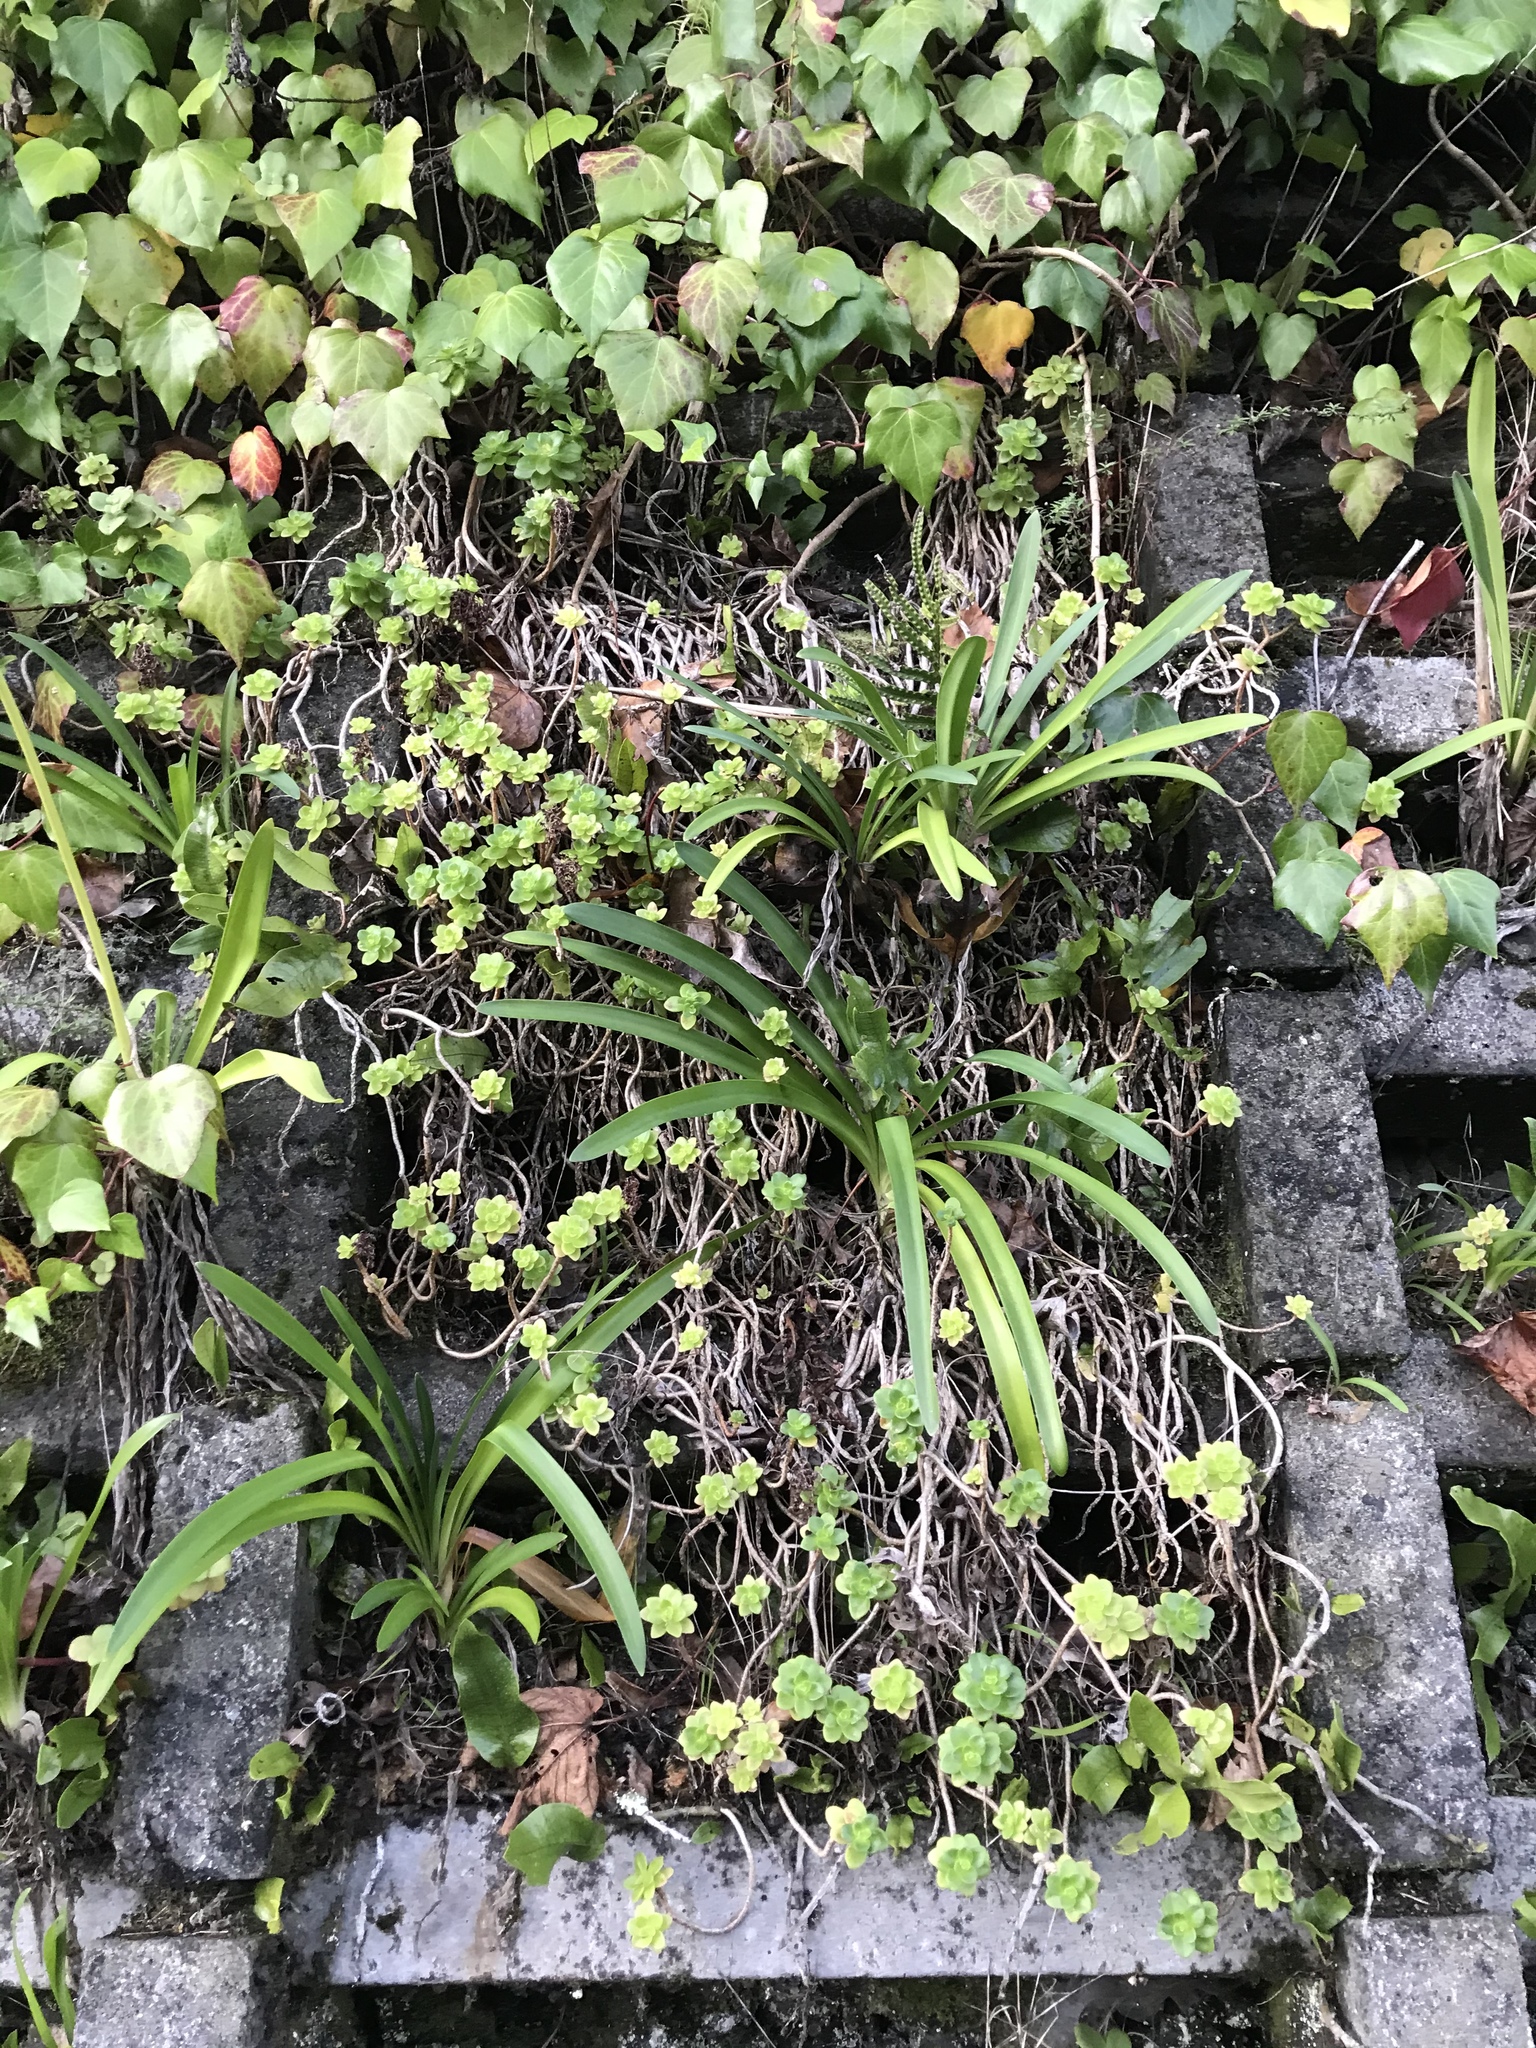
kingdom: Plantae
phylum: Tracheophyta
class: Magnoliopsida
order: Saxifragales
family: Crassulaceae
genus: Sedum
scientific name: Sedum kimnachii
